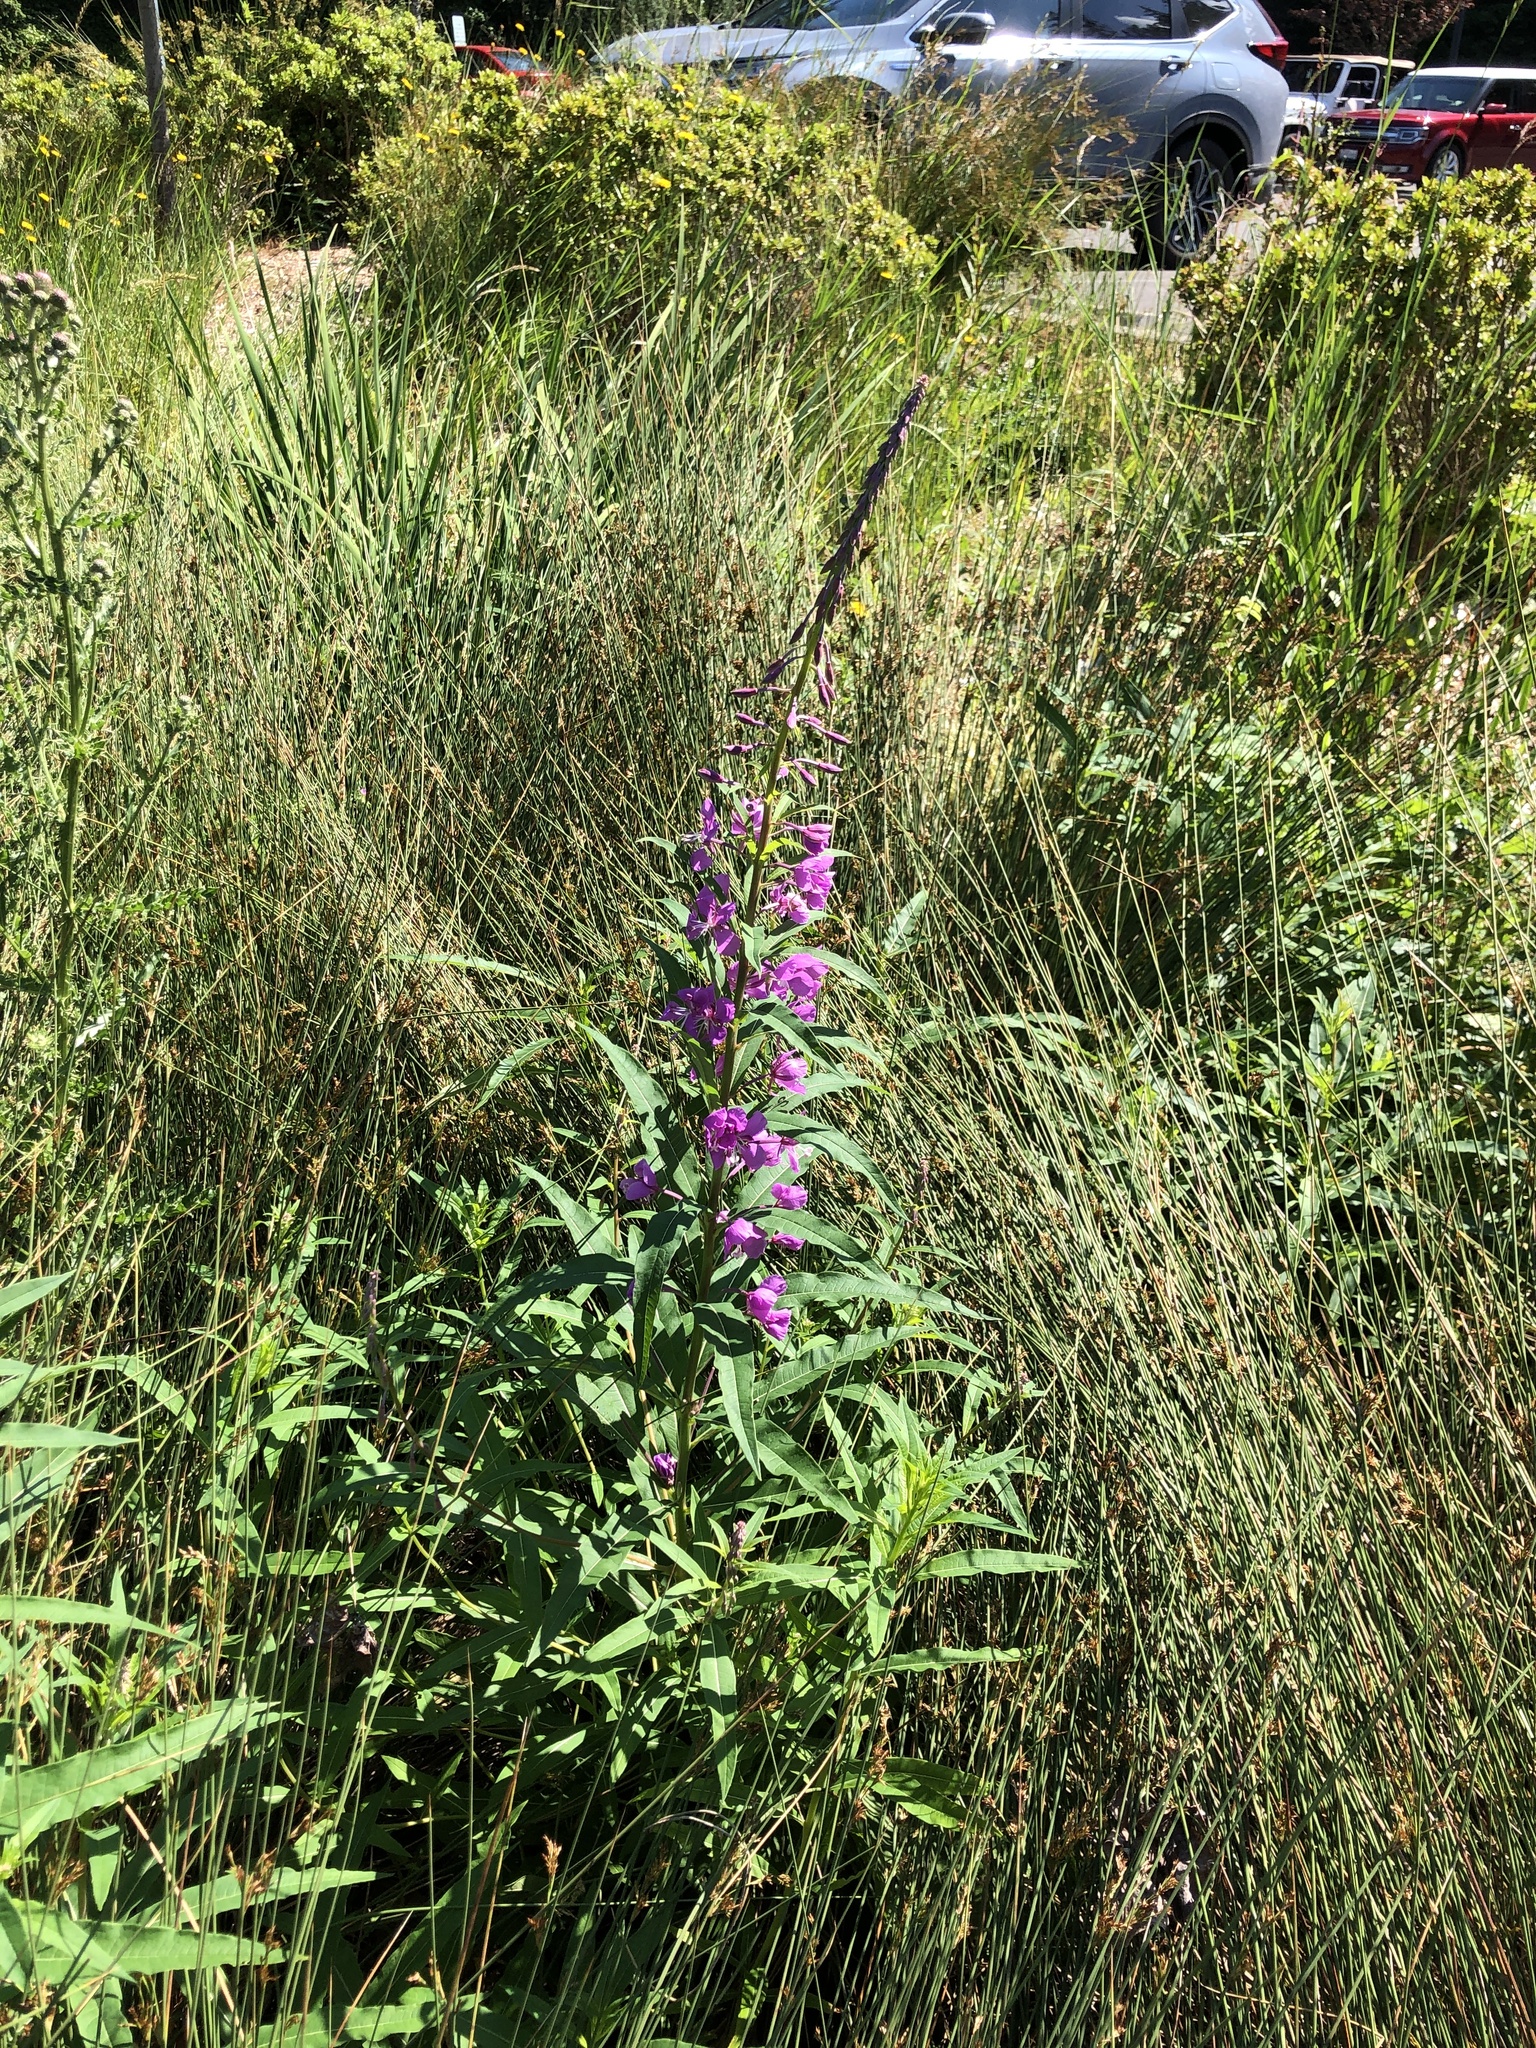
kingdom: Plantae
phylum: Tracheophyta
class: Magnoliopsida
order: Myrtales
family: Onagraceae
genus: Chamaenerion
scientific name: Chamaenerion angustifolium
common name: Fireweed
